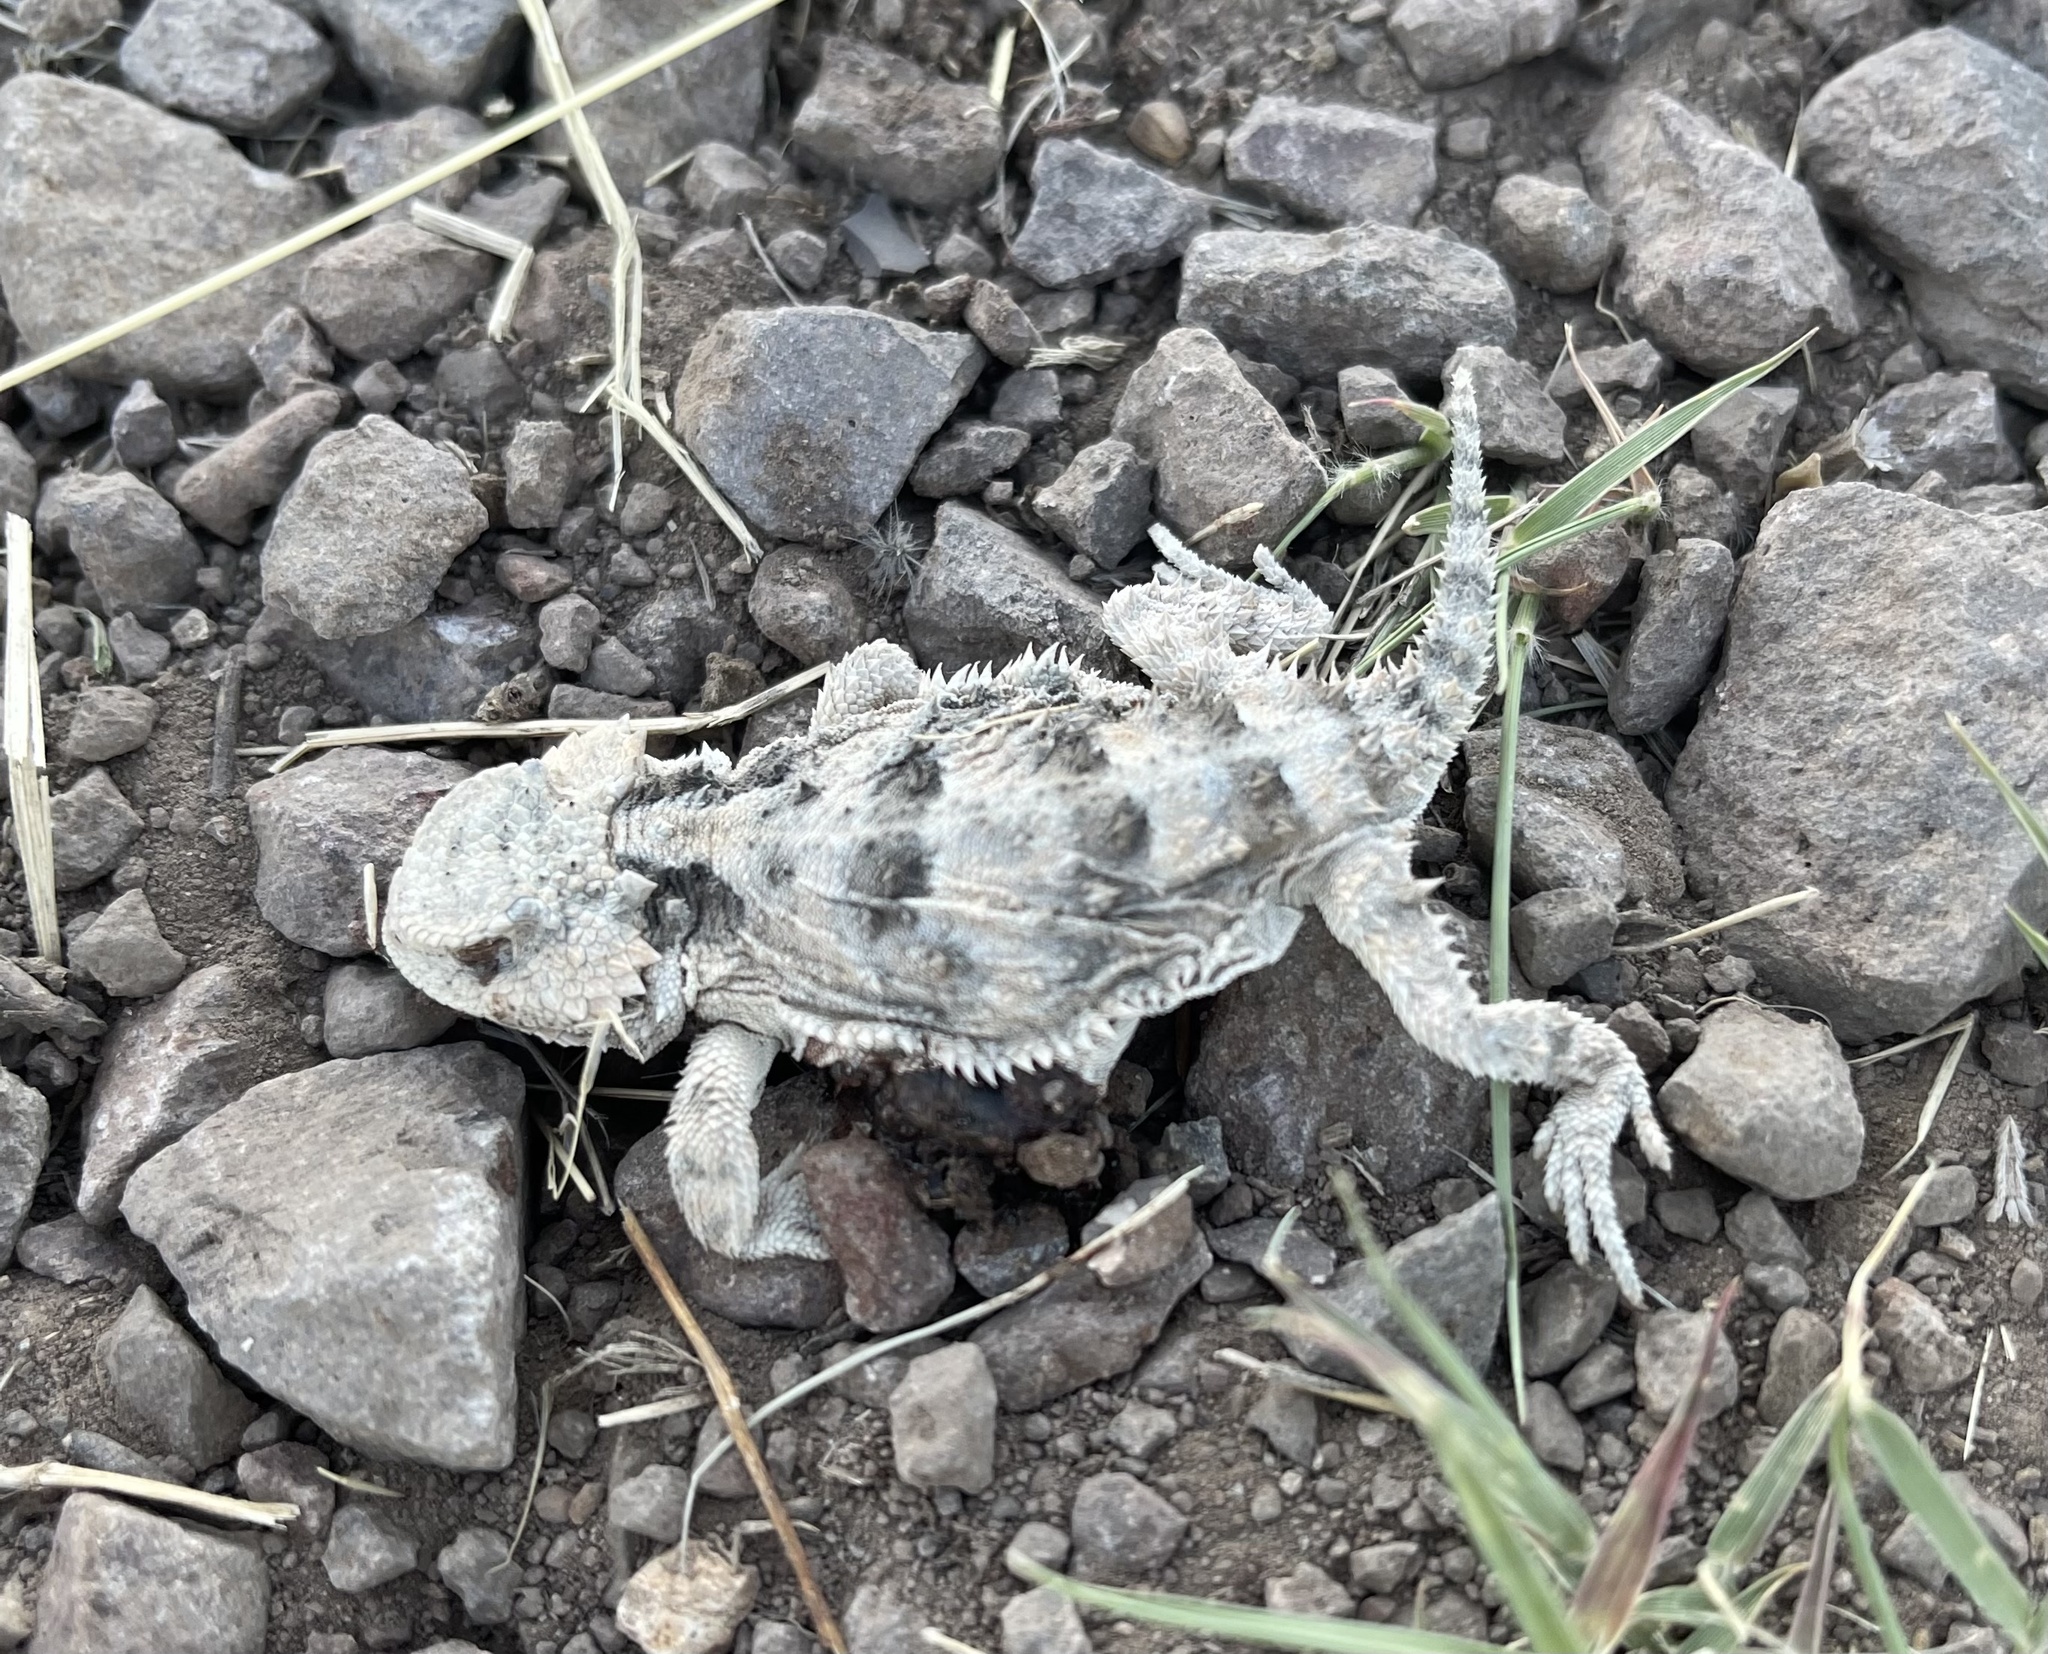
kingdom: Animalia
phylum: Chordata
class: Squamata
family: Phrynosomatidae
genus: Phrynosoma
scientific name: Phrynosoma hernandesi
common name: Greater short-horned lizard
